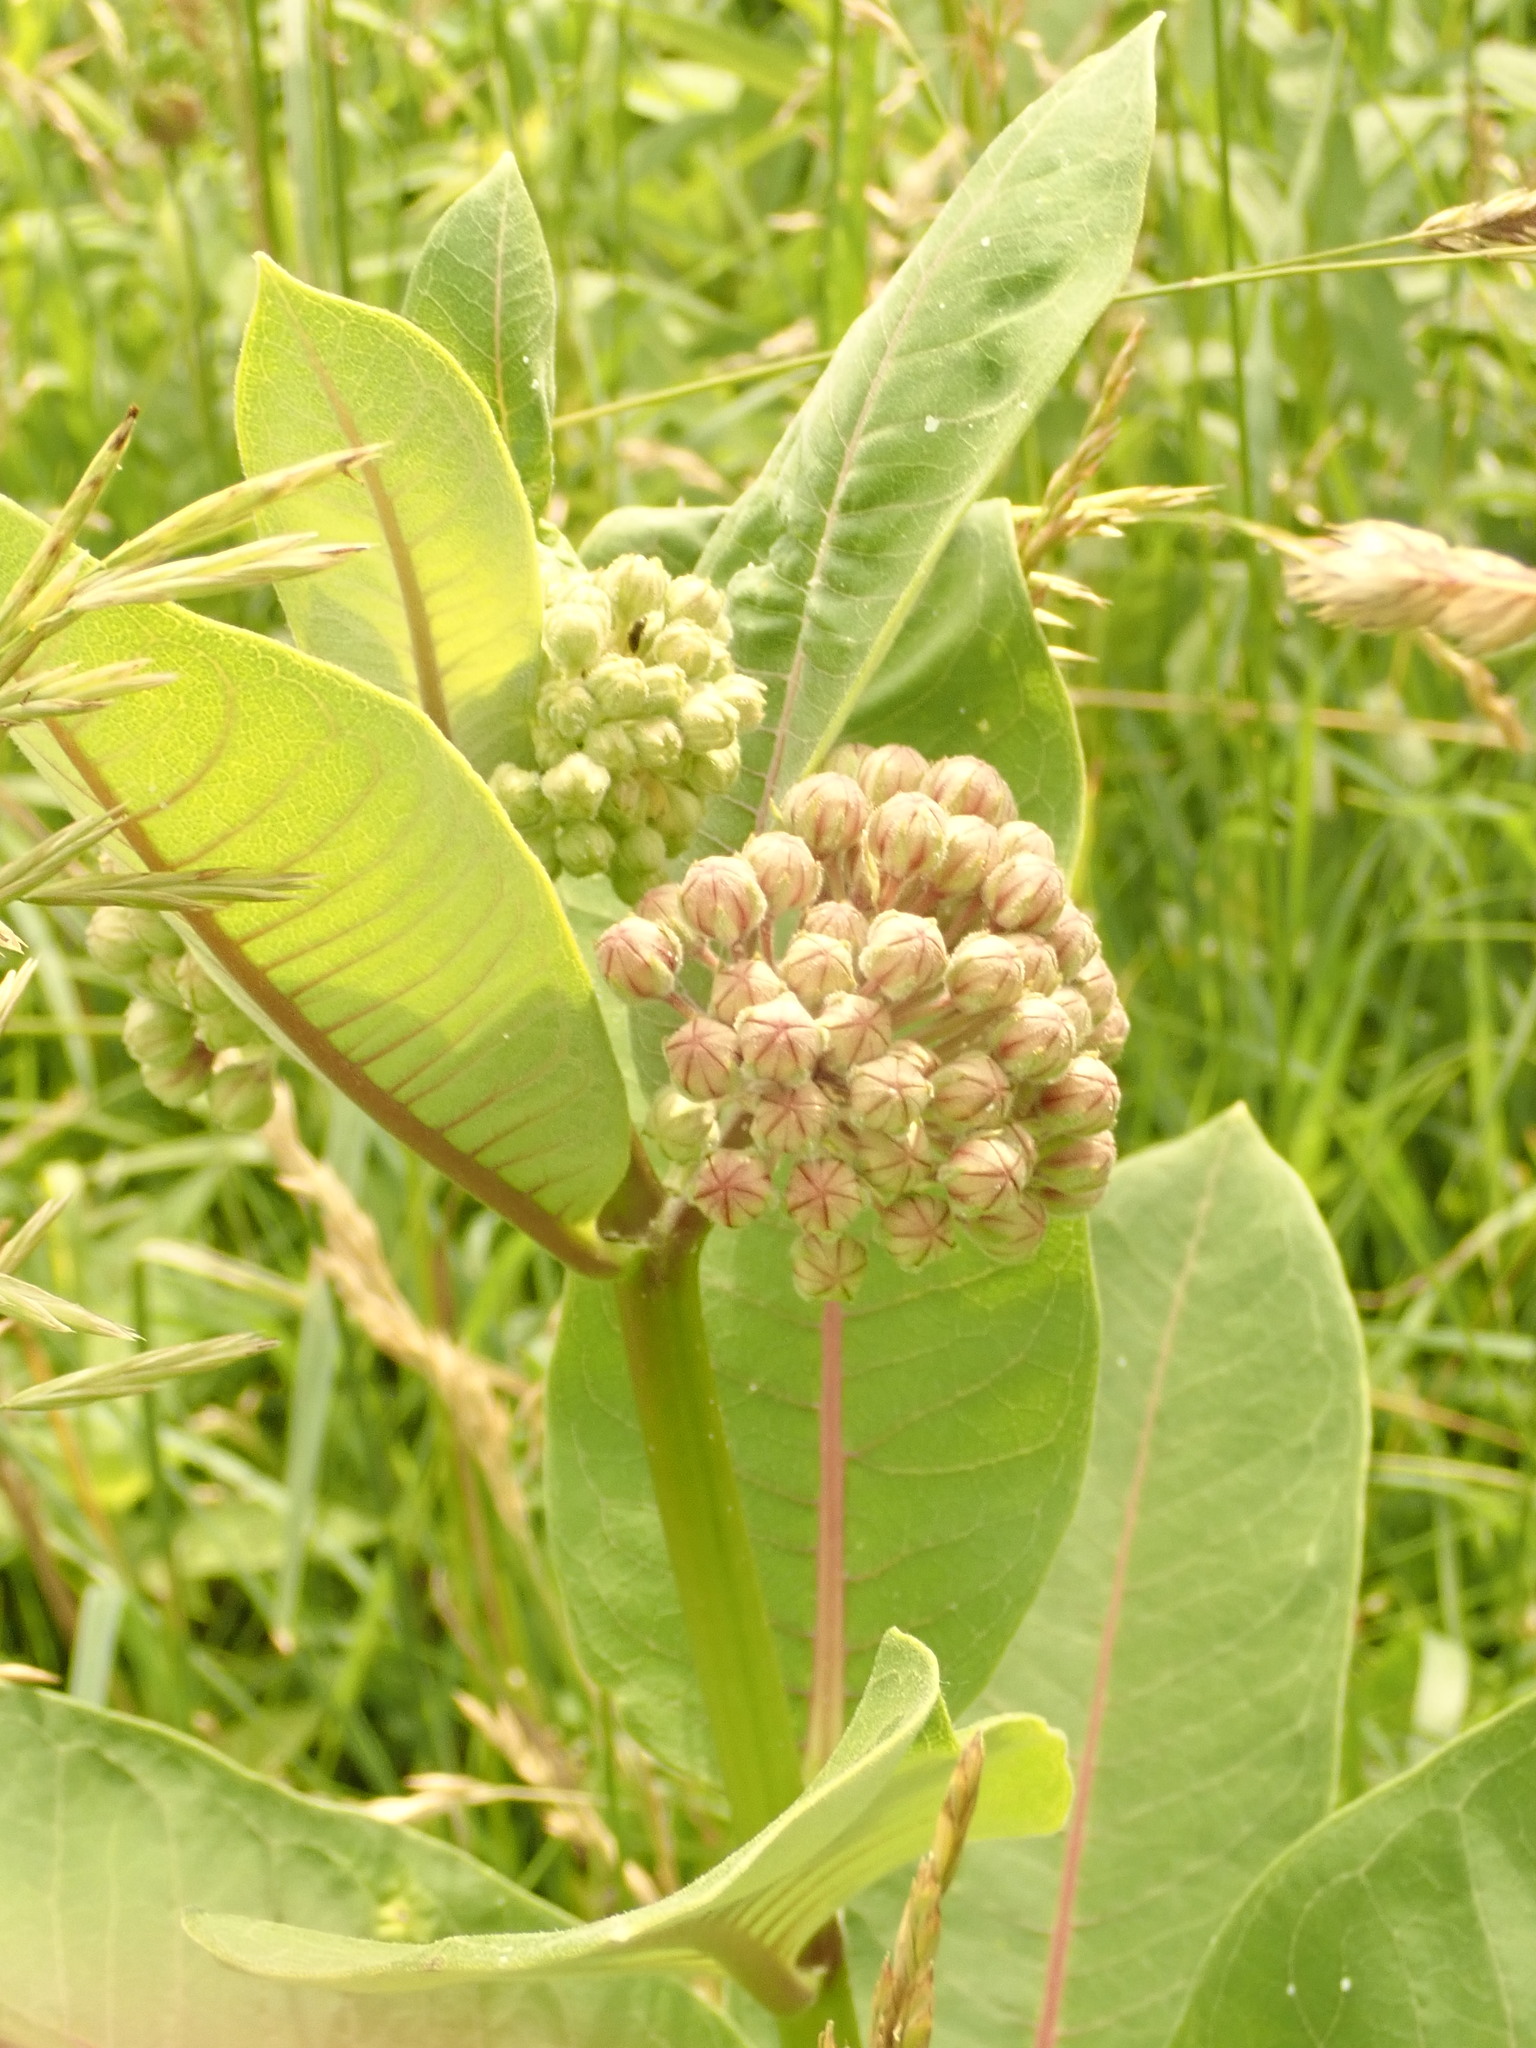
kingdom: Plantae
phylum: Tracheophyta
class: Magnoliopsida
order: Gentianales
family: Apocynaceae
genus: Asclepias
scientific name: Asclepias syriaca
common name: Common milkweed
